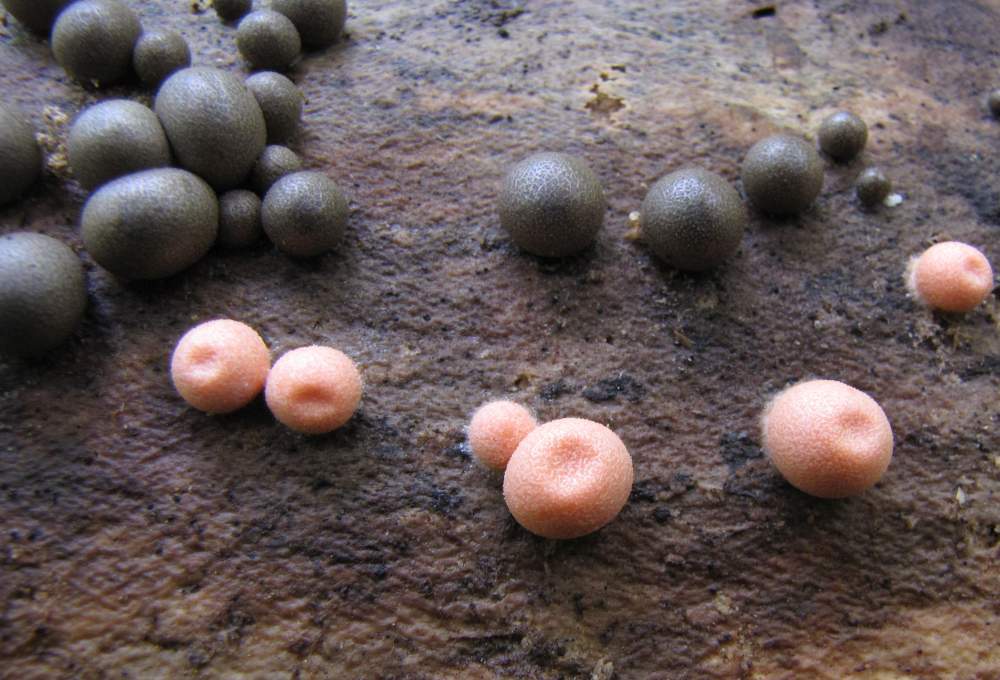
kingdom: Protozoa
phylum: Mycetozoa
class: Myxomycetes
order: Cribrariales
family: Tubiferaceae
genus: Lycogala
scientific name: Lycogala epidendrum
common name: Wolf's milk
